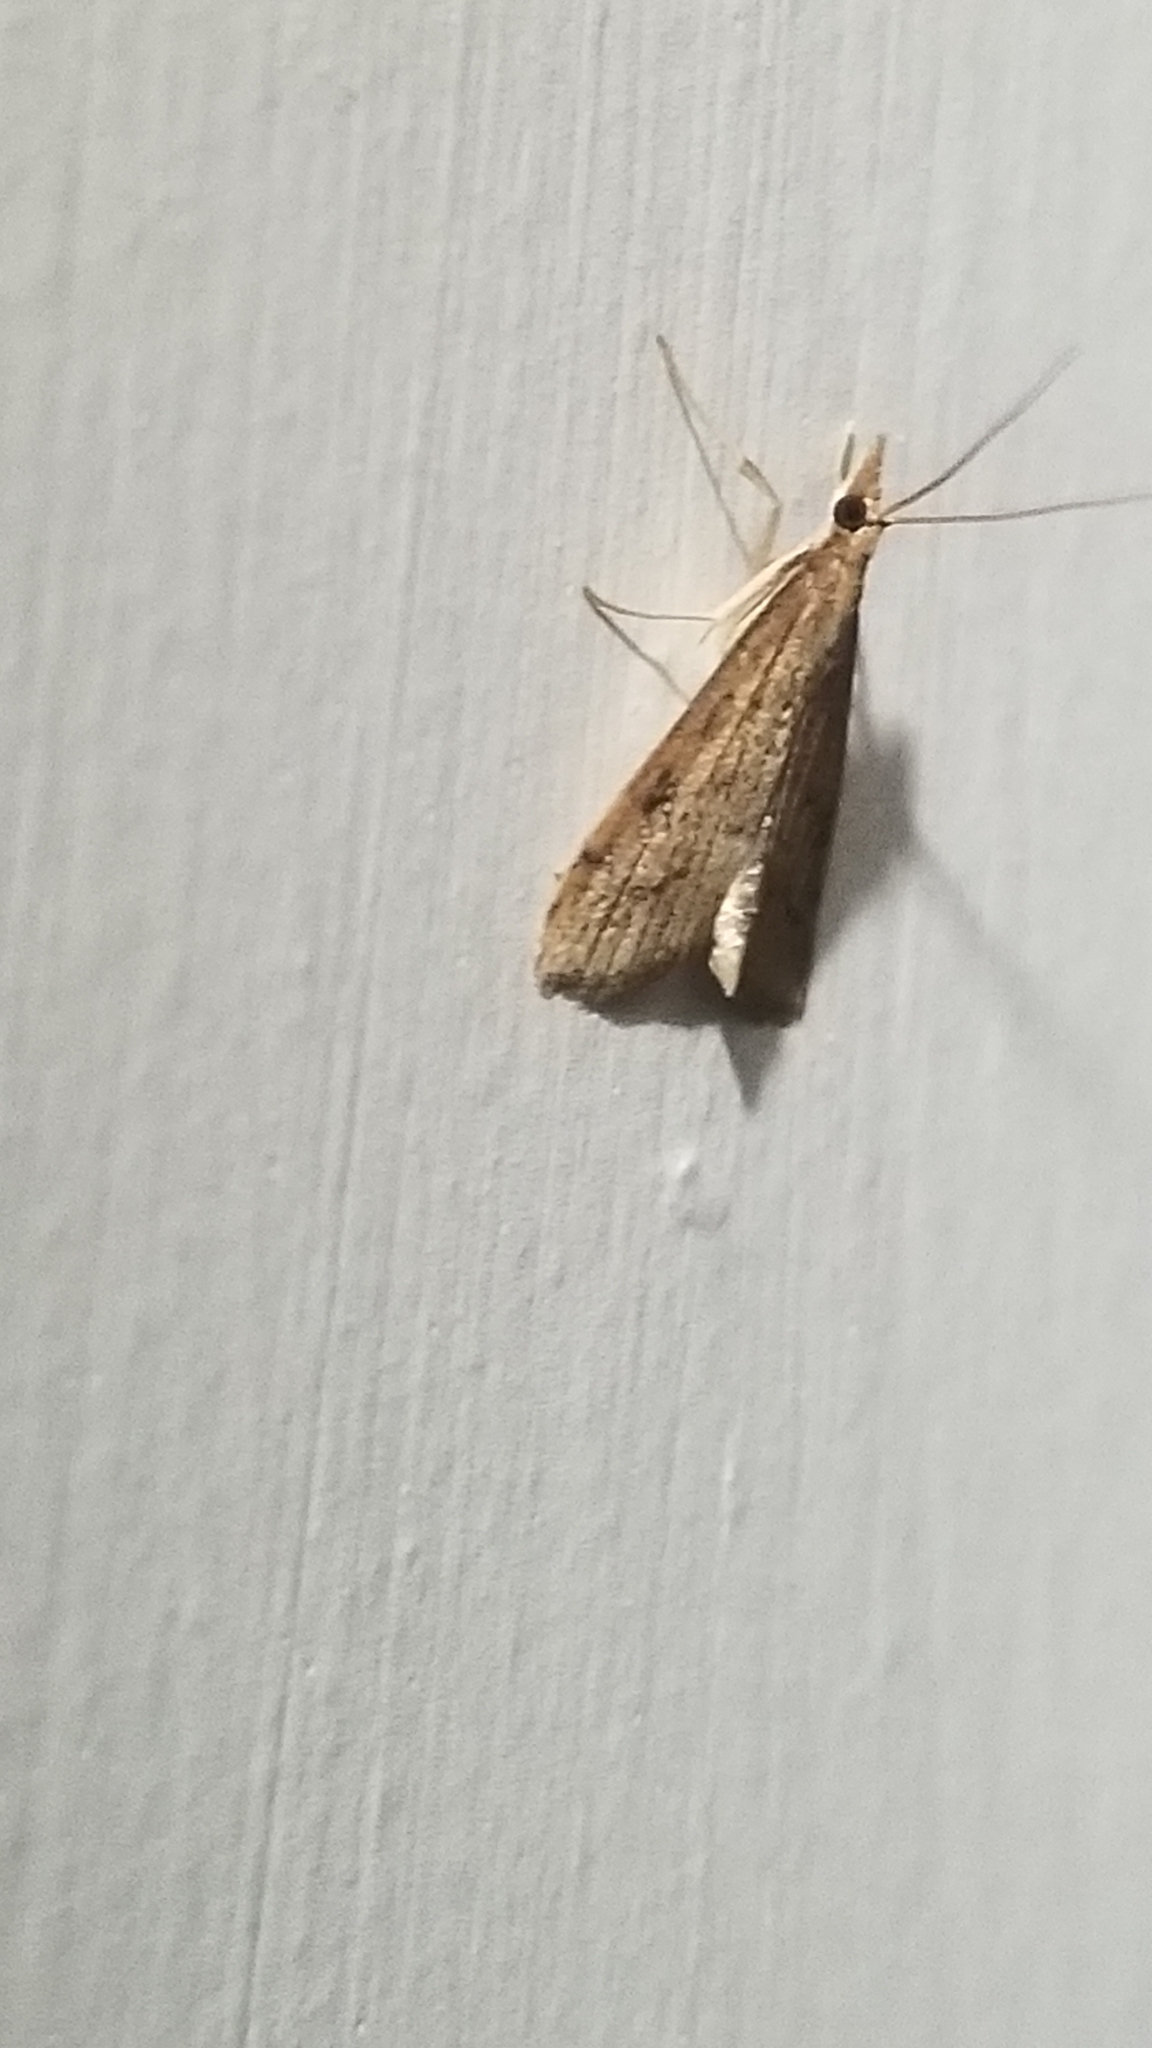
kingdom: Animalia
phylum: Arthropoda
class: Insecta
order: Lepidoptera
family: Crambidae
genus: Udea
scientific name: Udea rubigalis
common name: Celery leaftier moth
